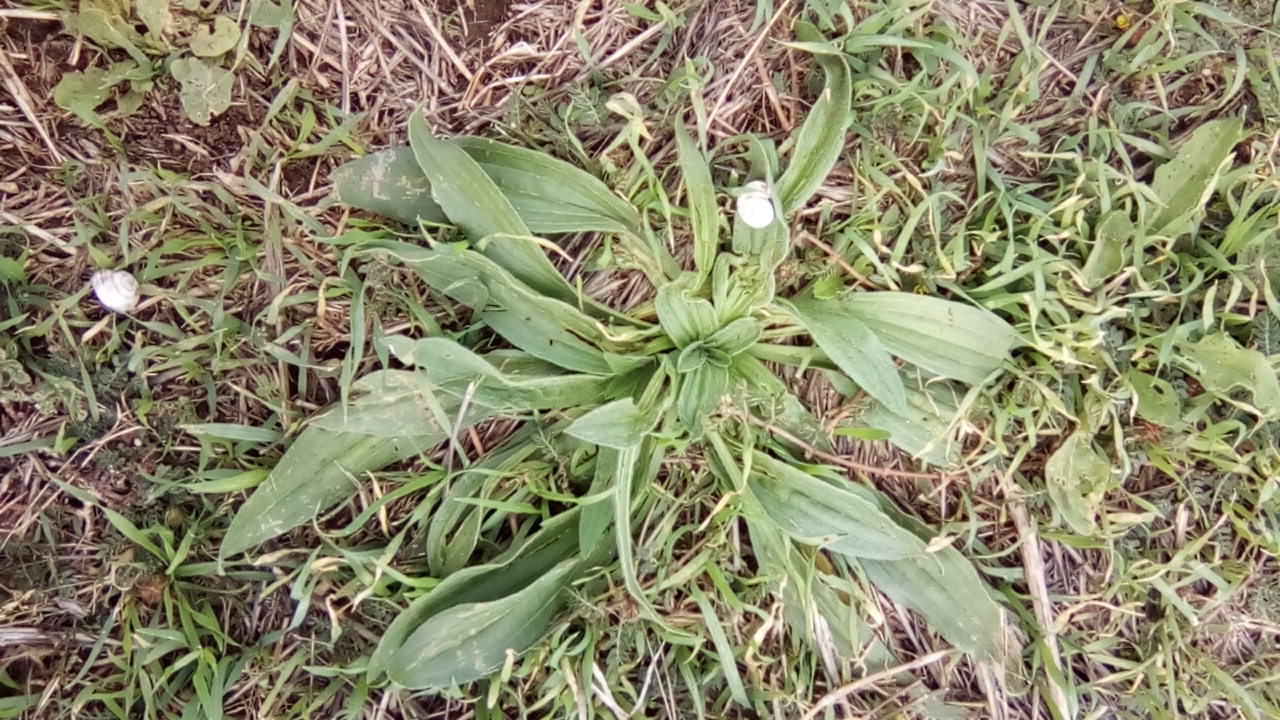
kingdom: Plantae
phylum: Tracheophyta
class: Magnoliopsida
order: Lamiales
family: Plantaginaceae
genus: Plantago
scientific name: Plantago lanceolata
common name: Ribwort plantain
